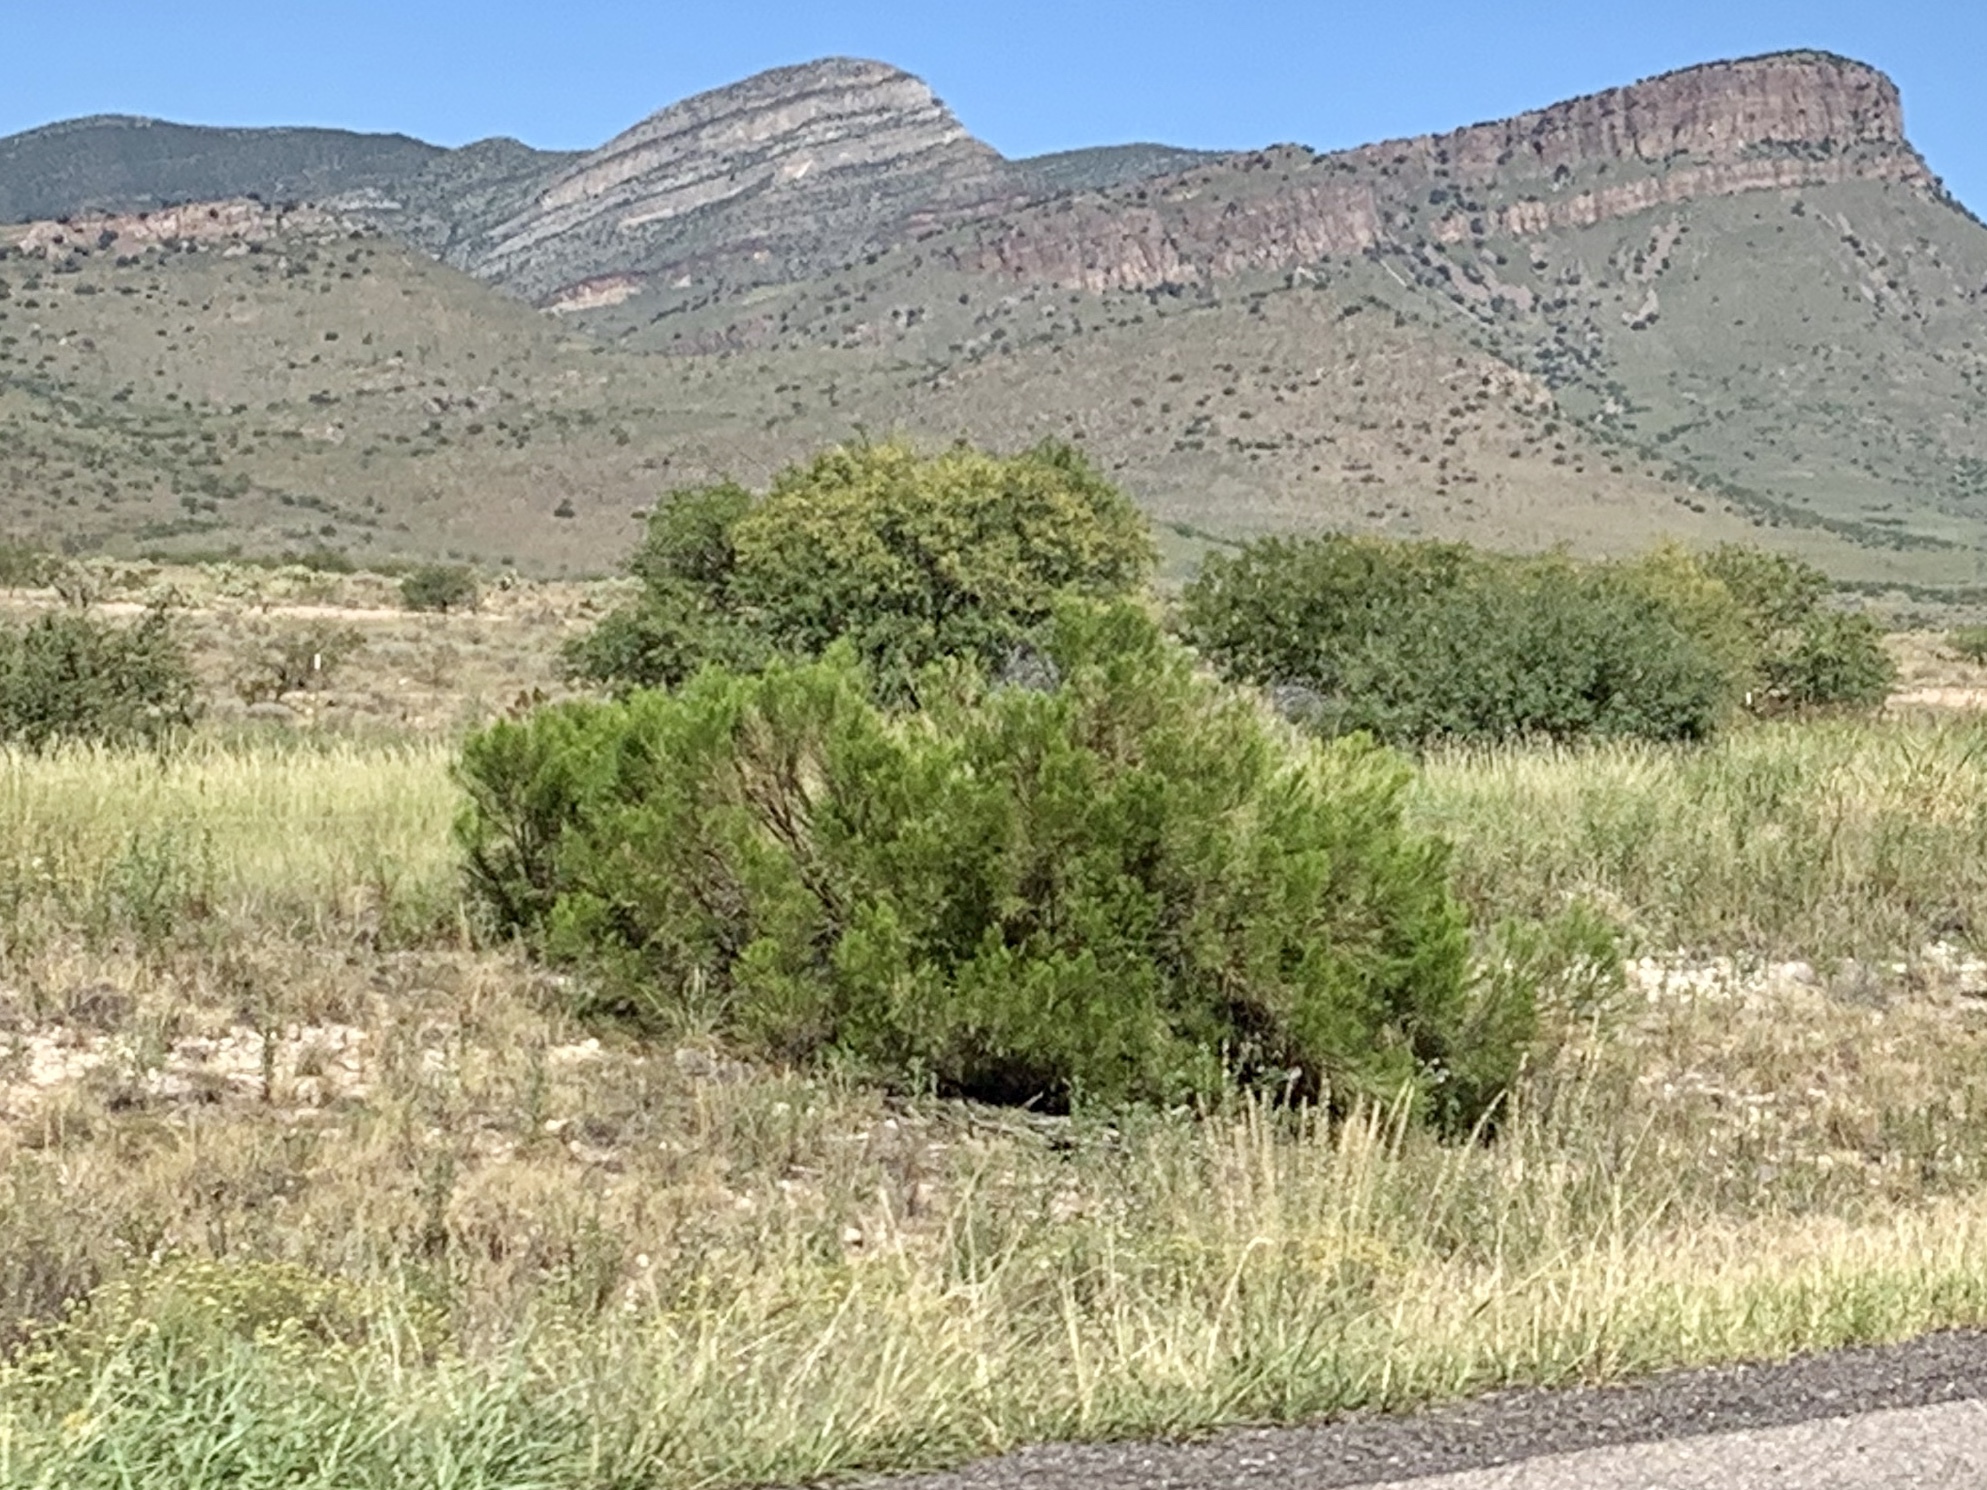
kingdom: Plantae
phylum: Tracheophyta
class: Magnoliopsida
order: Asterales
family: Asteraceae
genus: Baccharis
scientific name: Baccharis sarothroides
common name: Desert-broom
